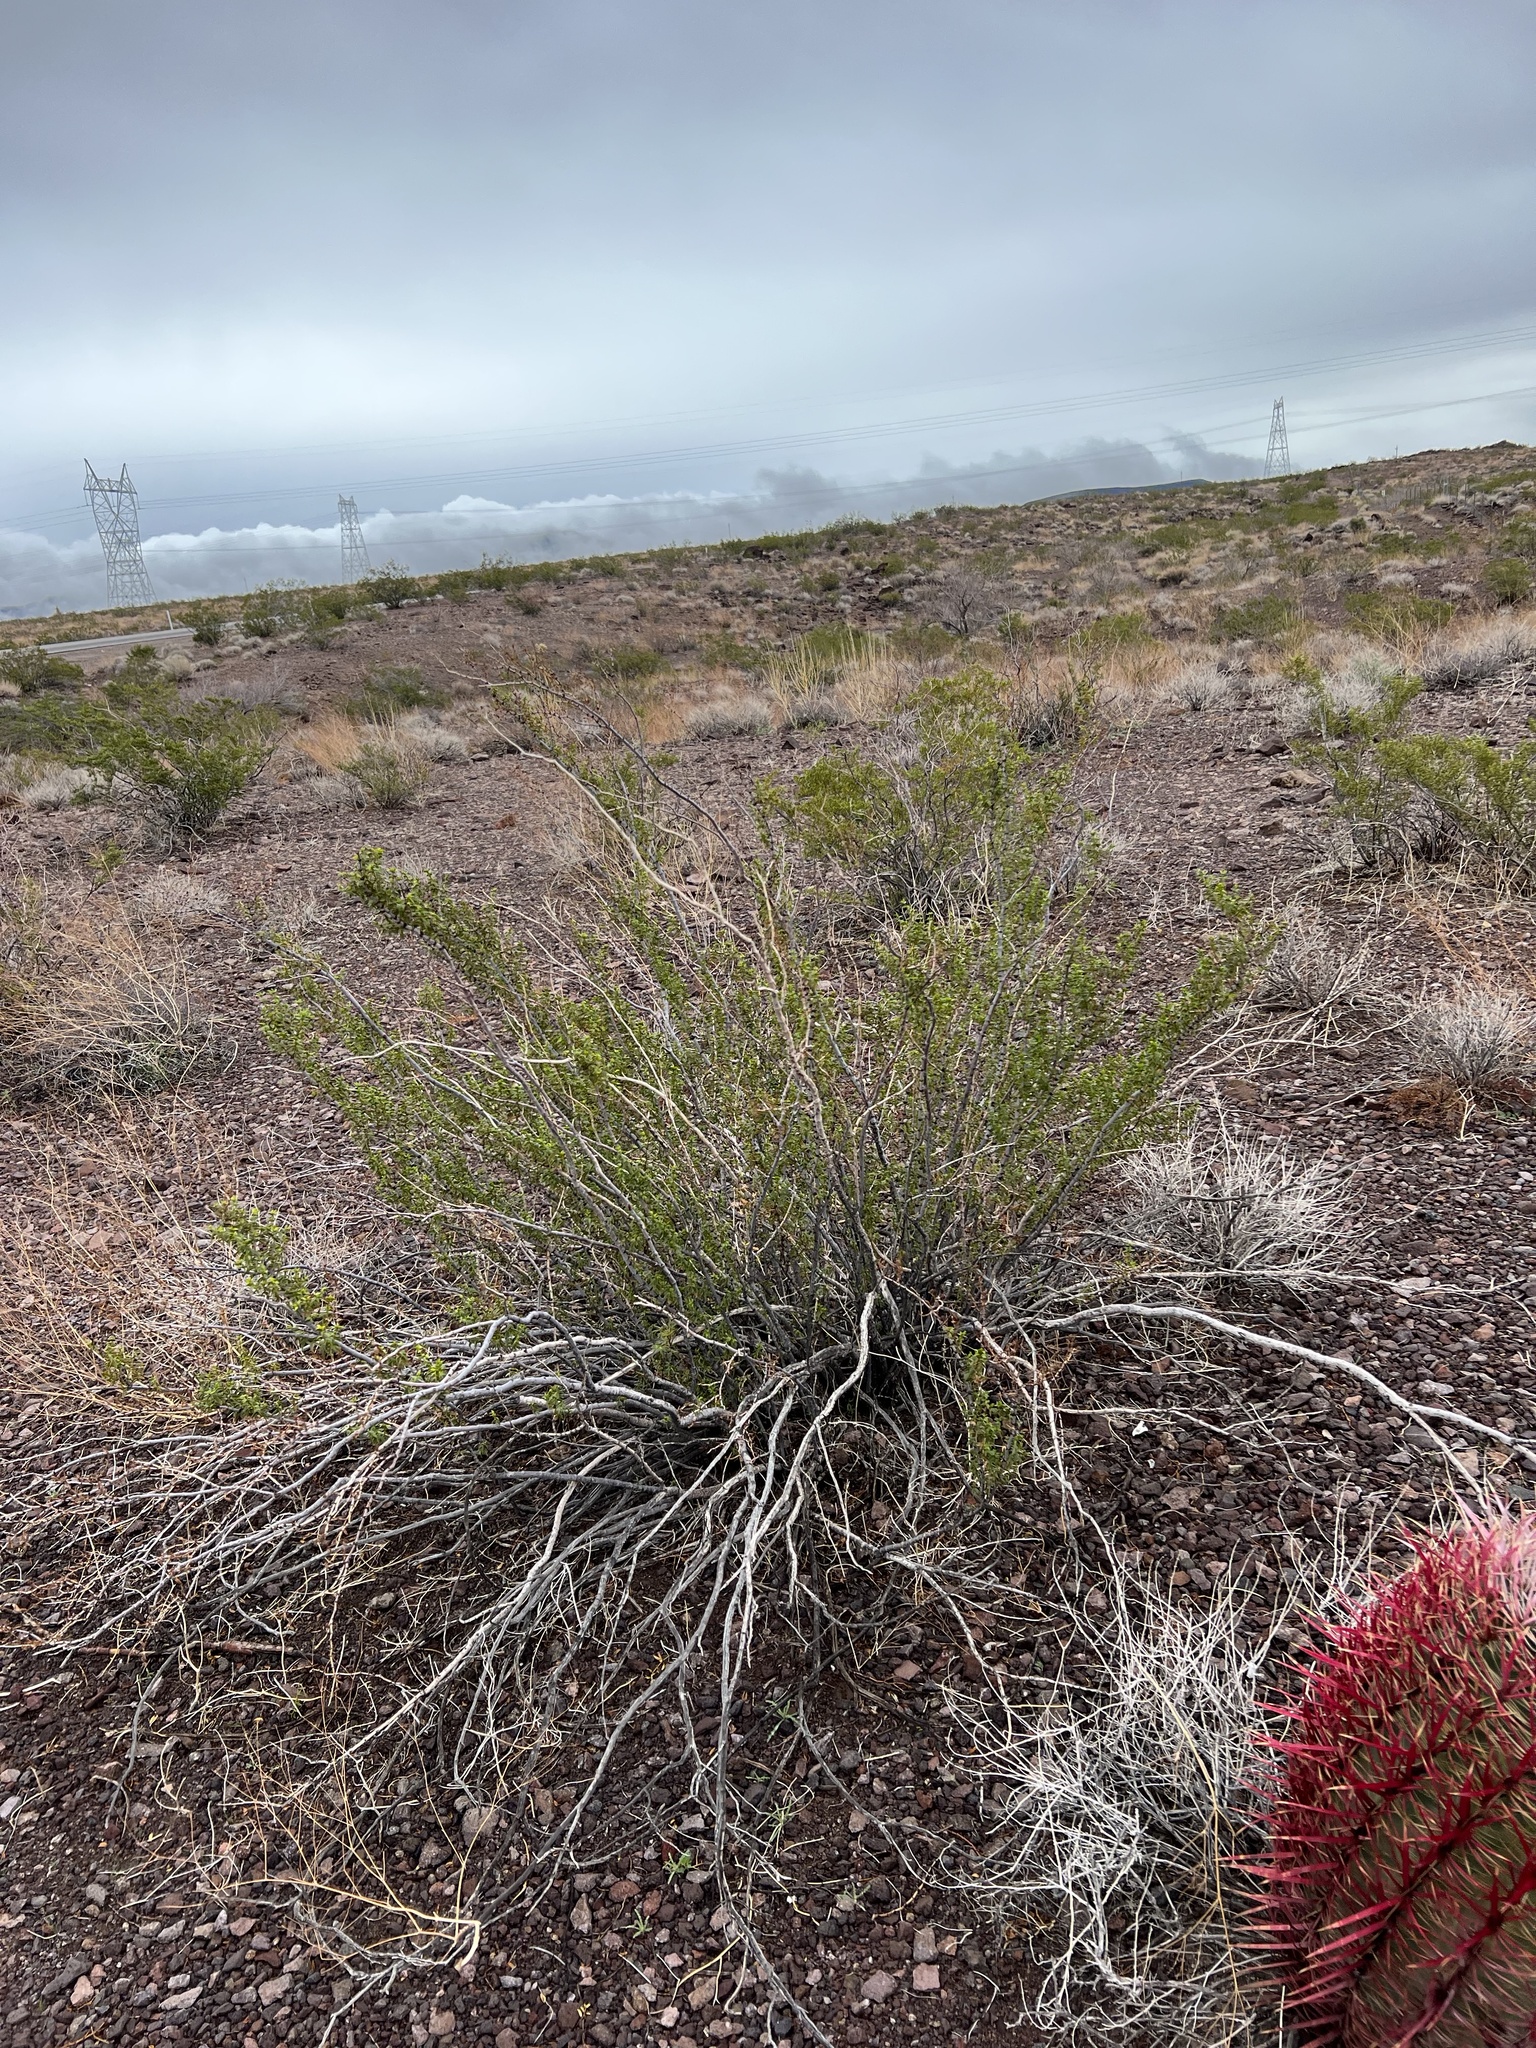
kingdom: Plantae
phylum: Tracheophyta
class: Magnoliopsida
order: Zygophyllales
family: Zygophyllaceae
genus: Larrea
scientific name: Larrea tridentata
